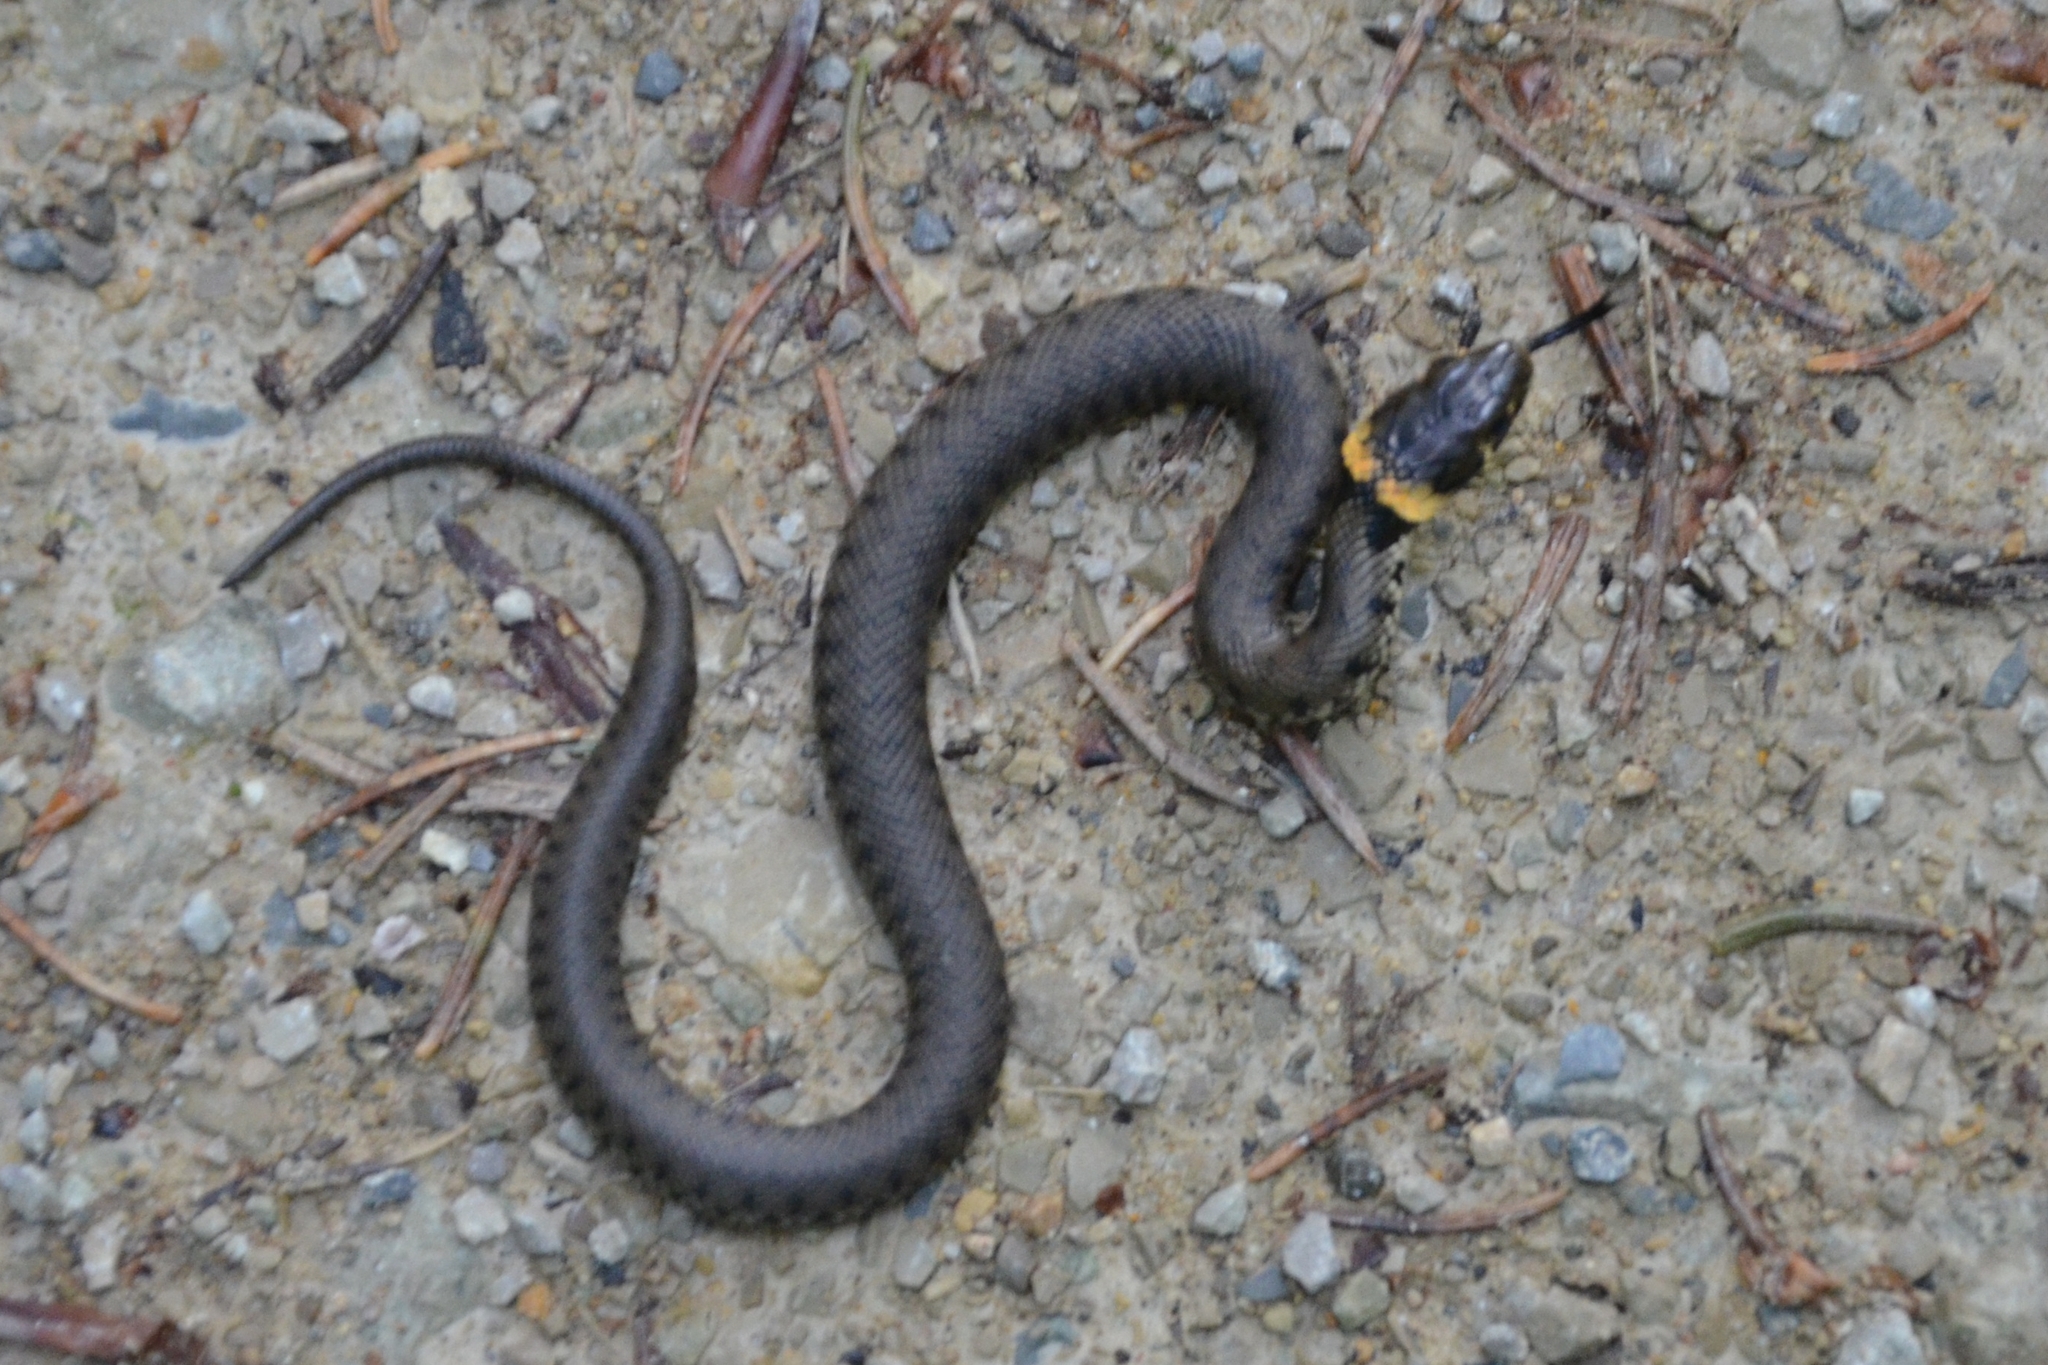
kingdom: Animalia
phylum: Chordata
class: Squamata
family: Colubridae
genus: Natrix
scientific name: Natrix helvetica
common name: Banded grass snake
